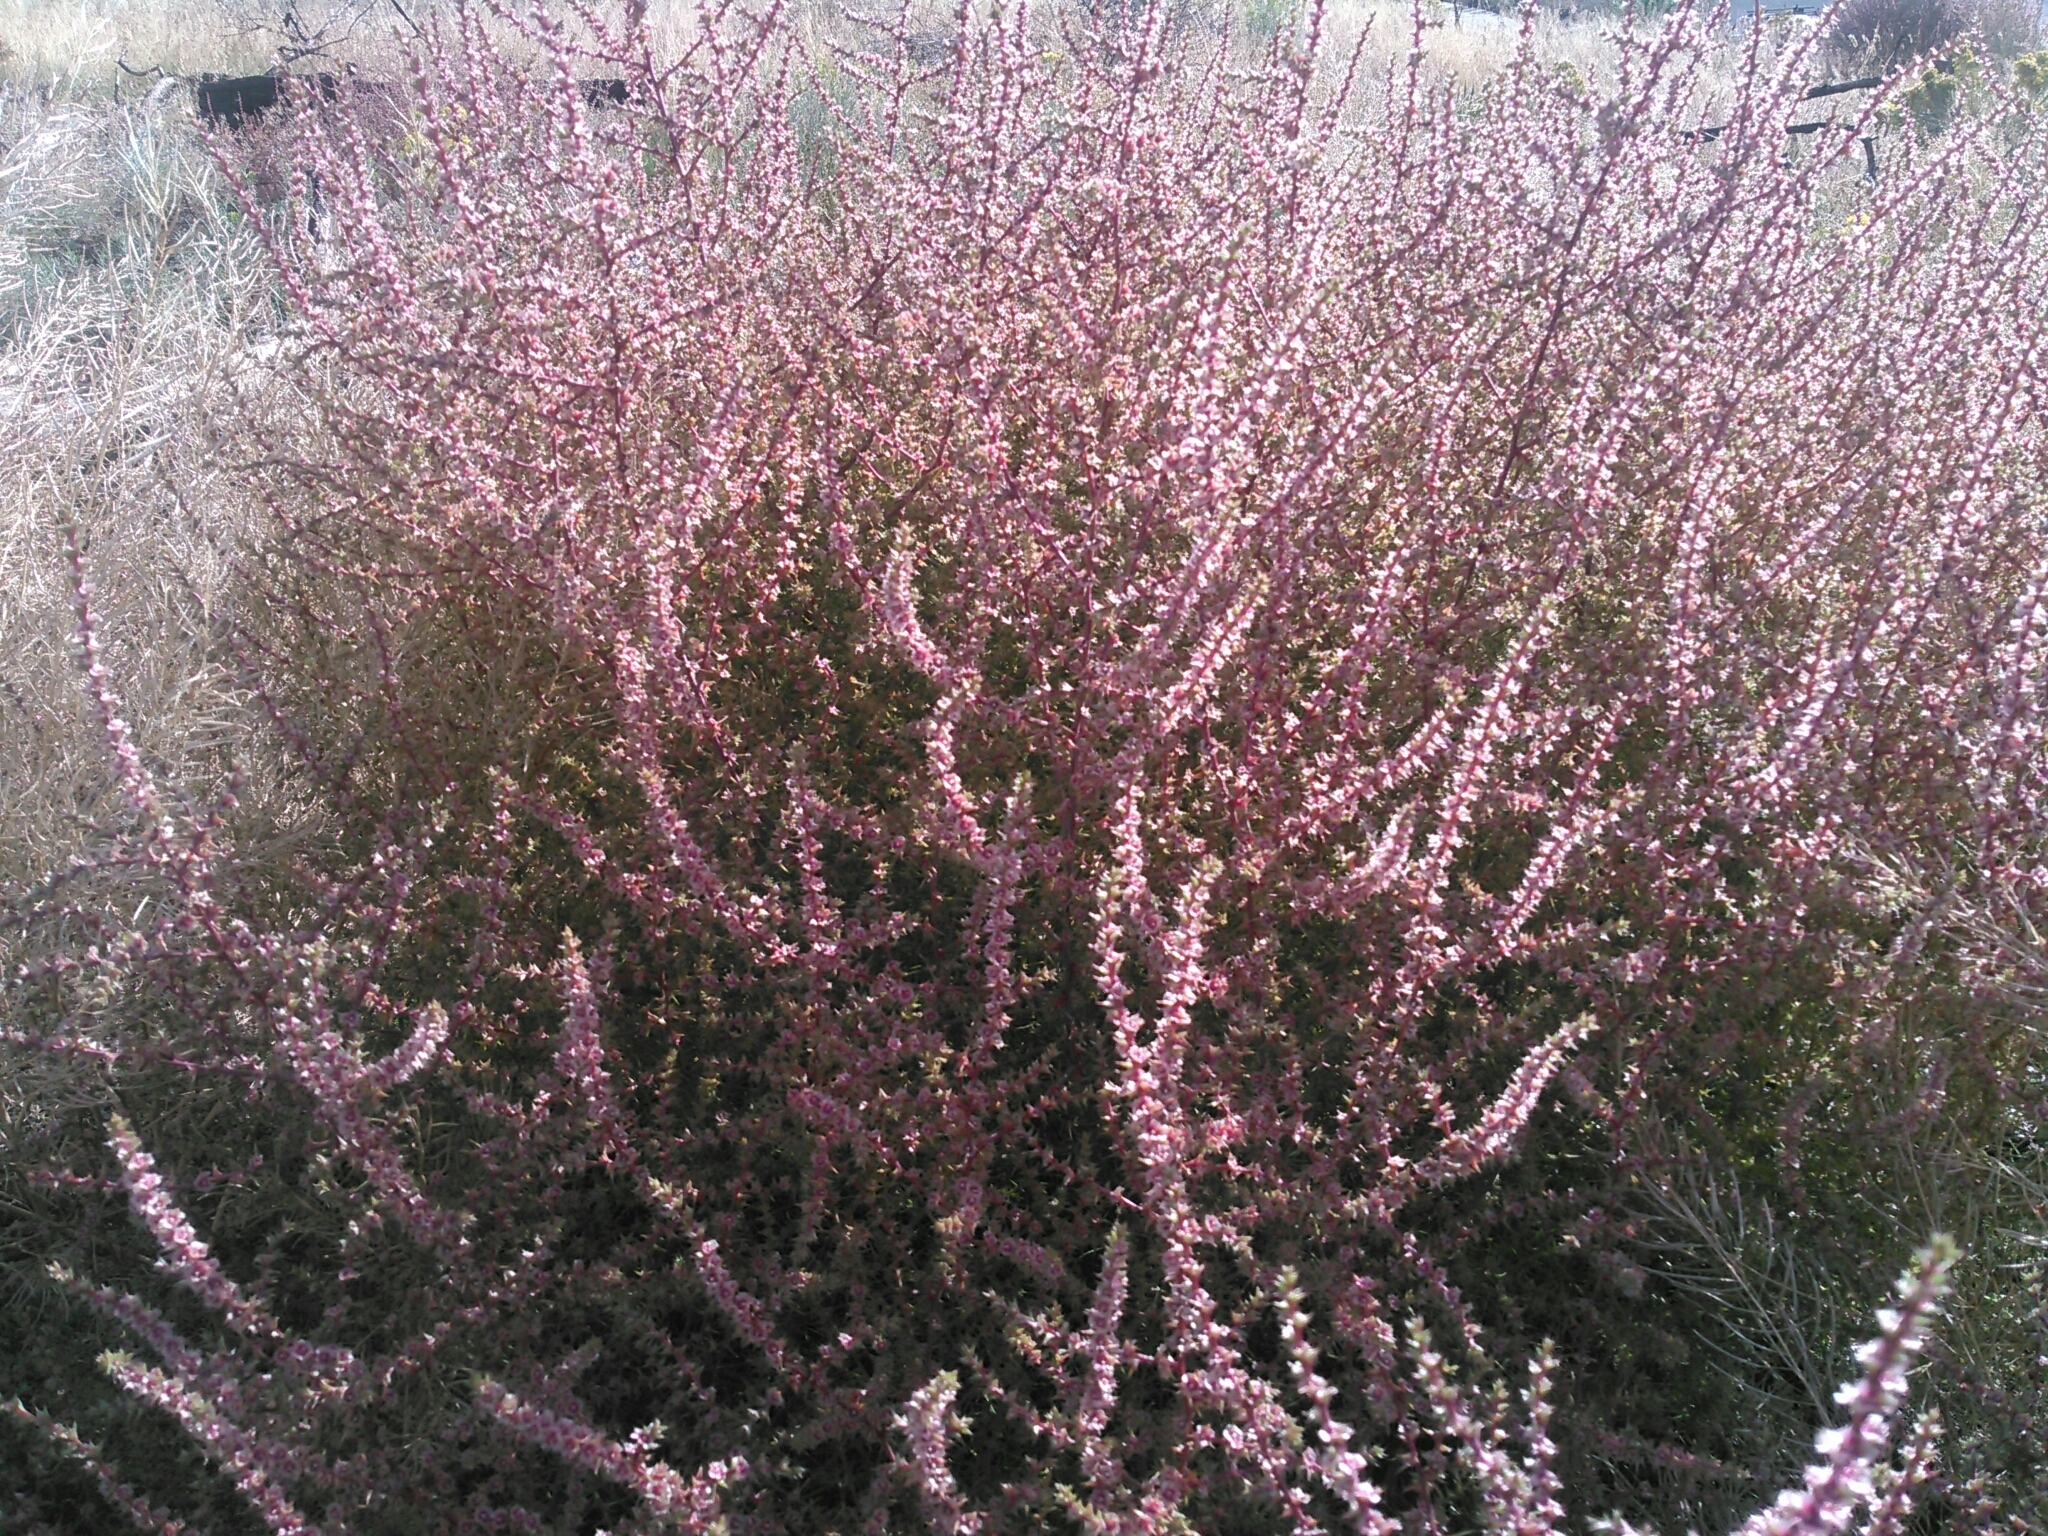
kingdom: Plantae
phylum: Tracheophyta
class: Magnoliopsida
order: Caryophyllales
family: Amaranthaceae
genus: Salsola
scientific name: Salsola tragus
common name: Prickly russian thistle
